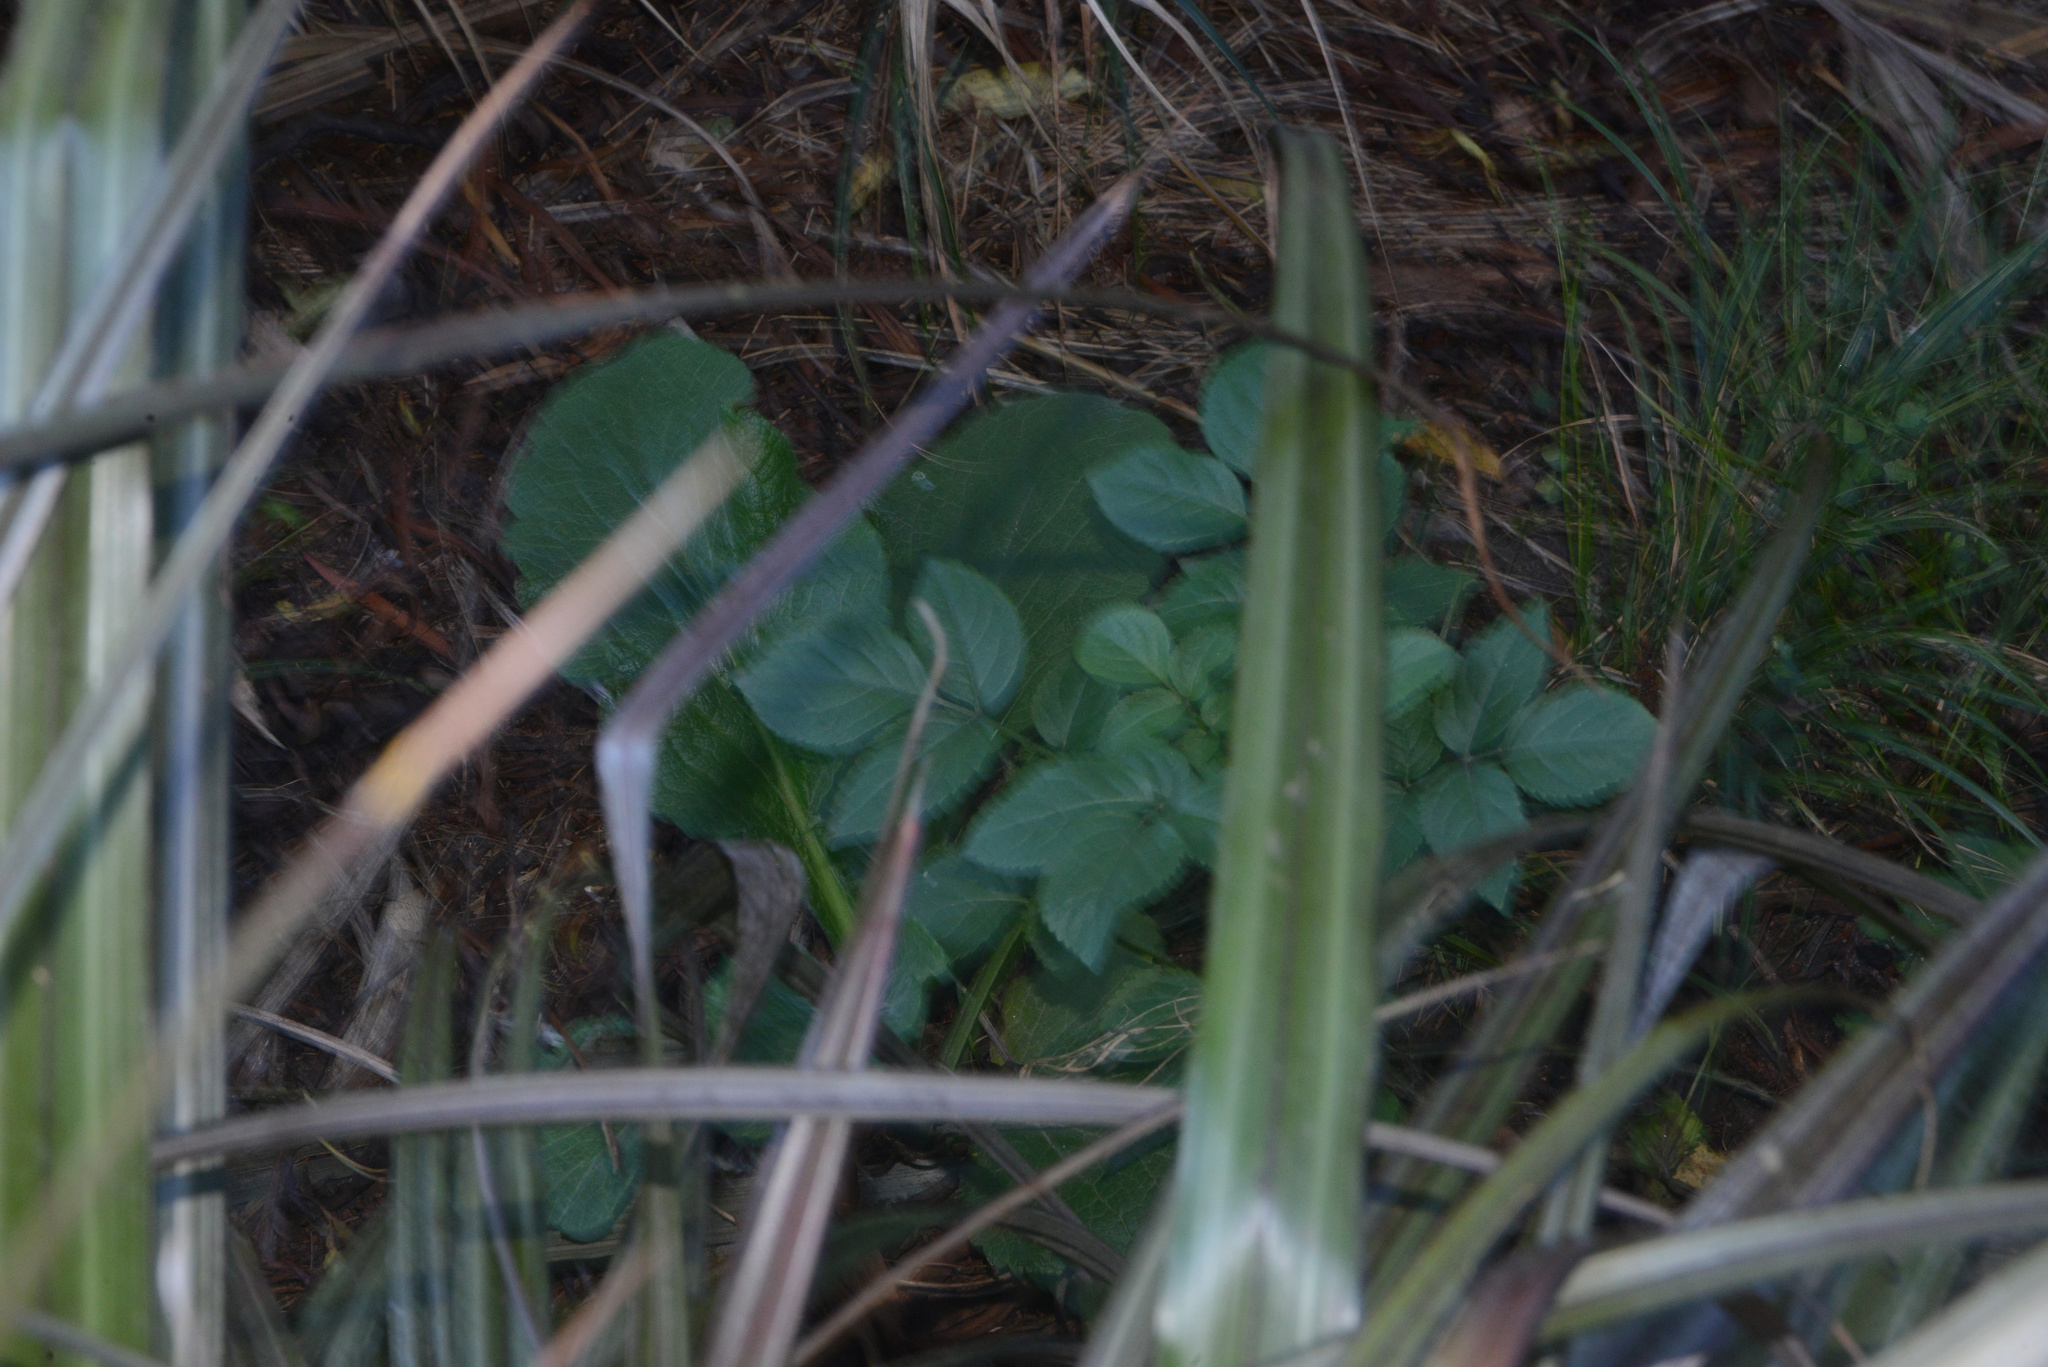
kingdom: Plantae
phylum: Tracheophyta
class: Magnoliopsida
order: Dipsacales
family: Viburnaceae
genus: Sambucus
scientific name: Sambucus nigra
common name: Elder
